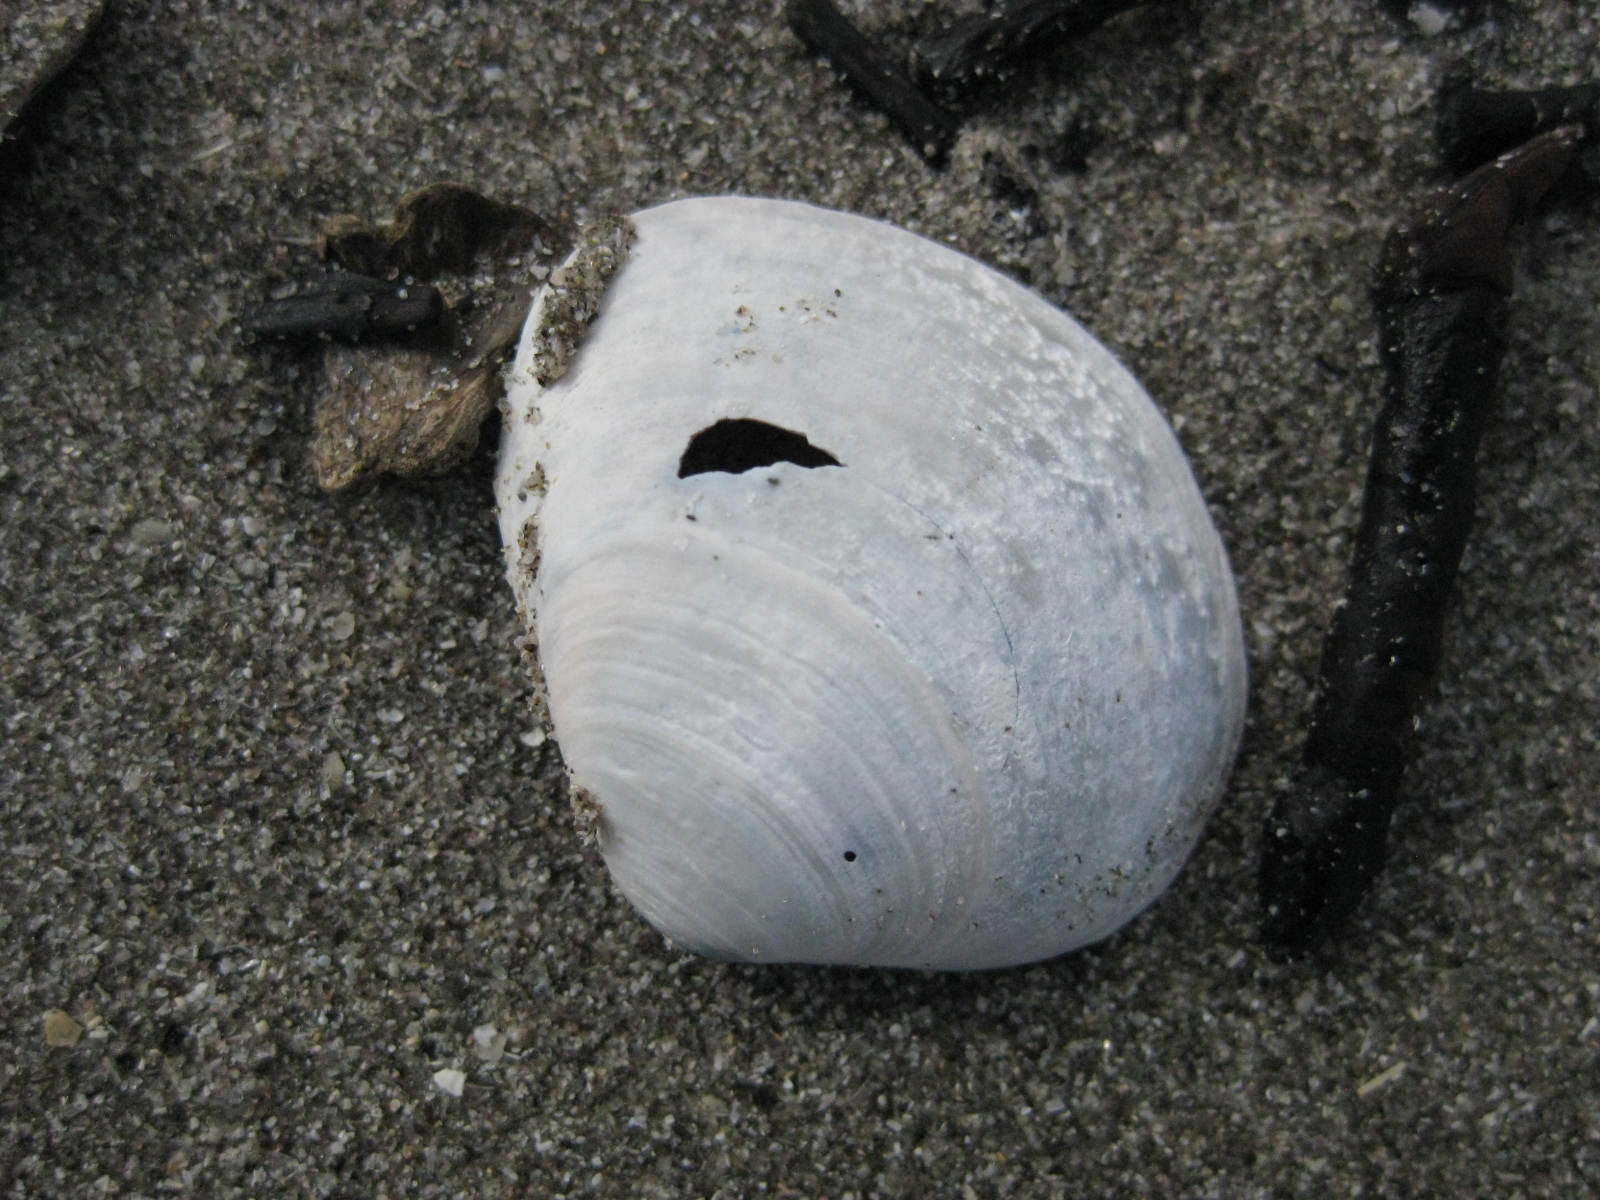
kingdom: Animalia
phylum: Mollusca
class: Bivalvia
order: Venerida
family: Mactridae
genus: Cyclomactra
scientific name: Cyclomactra ovata
